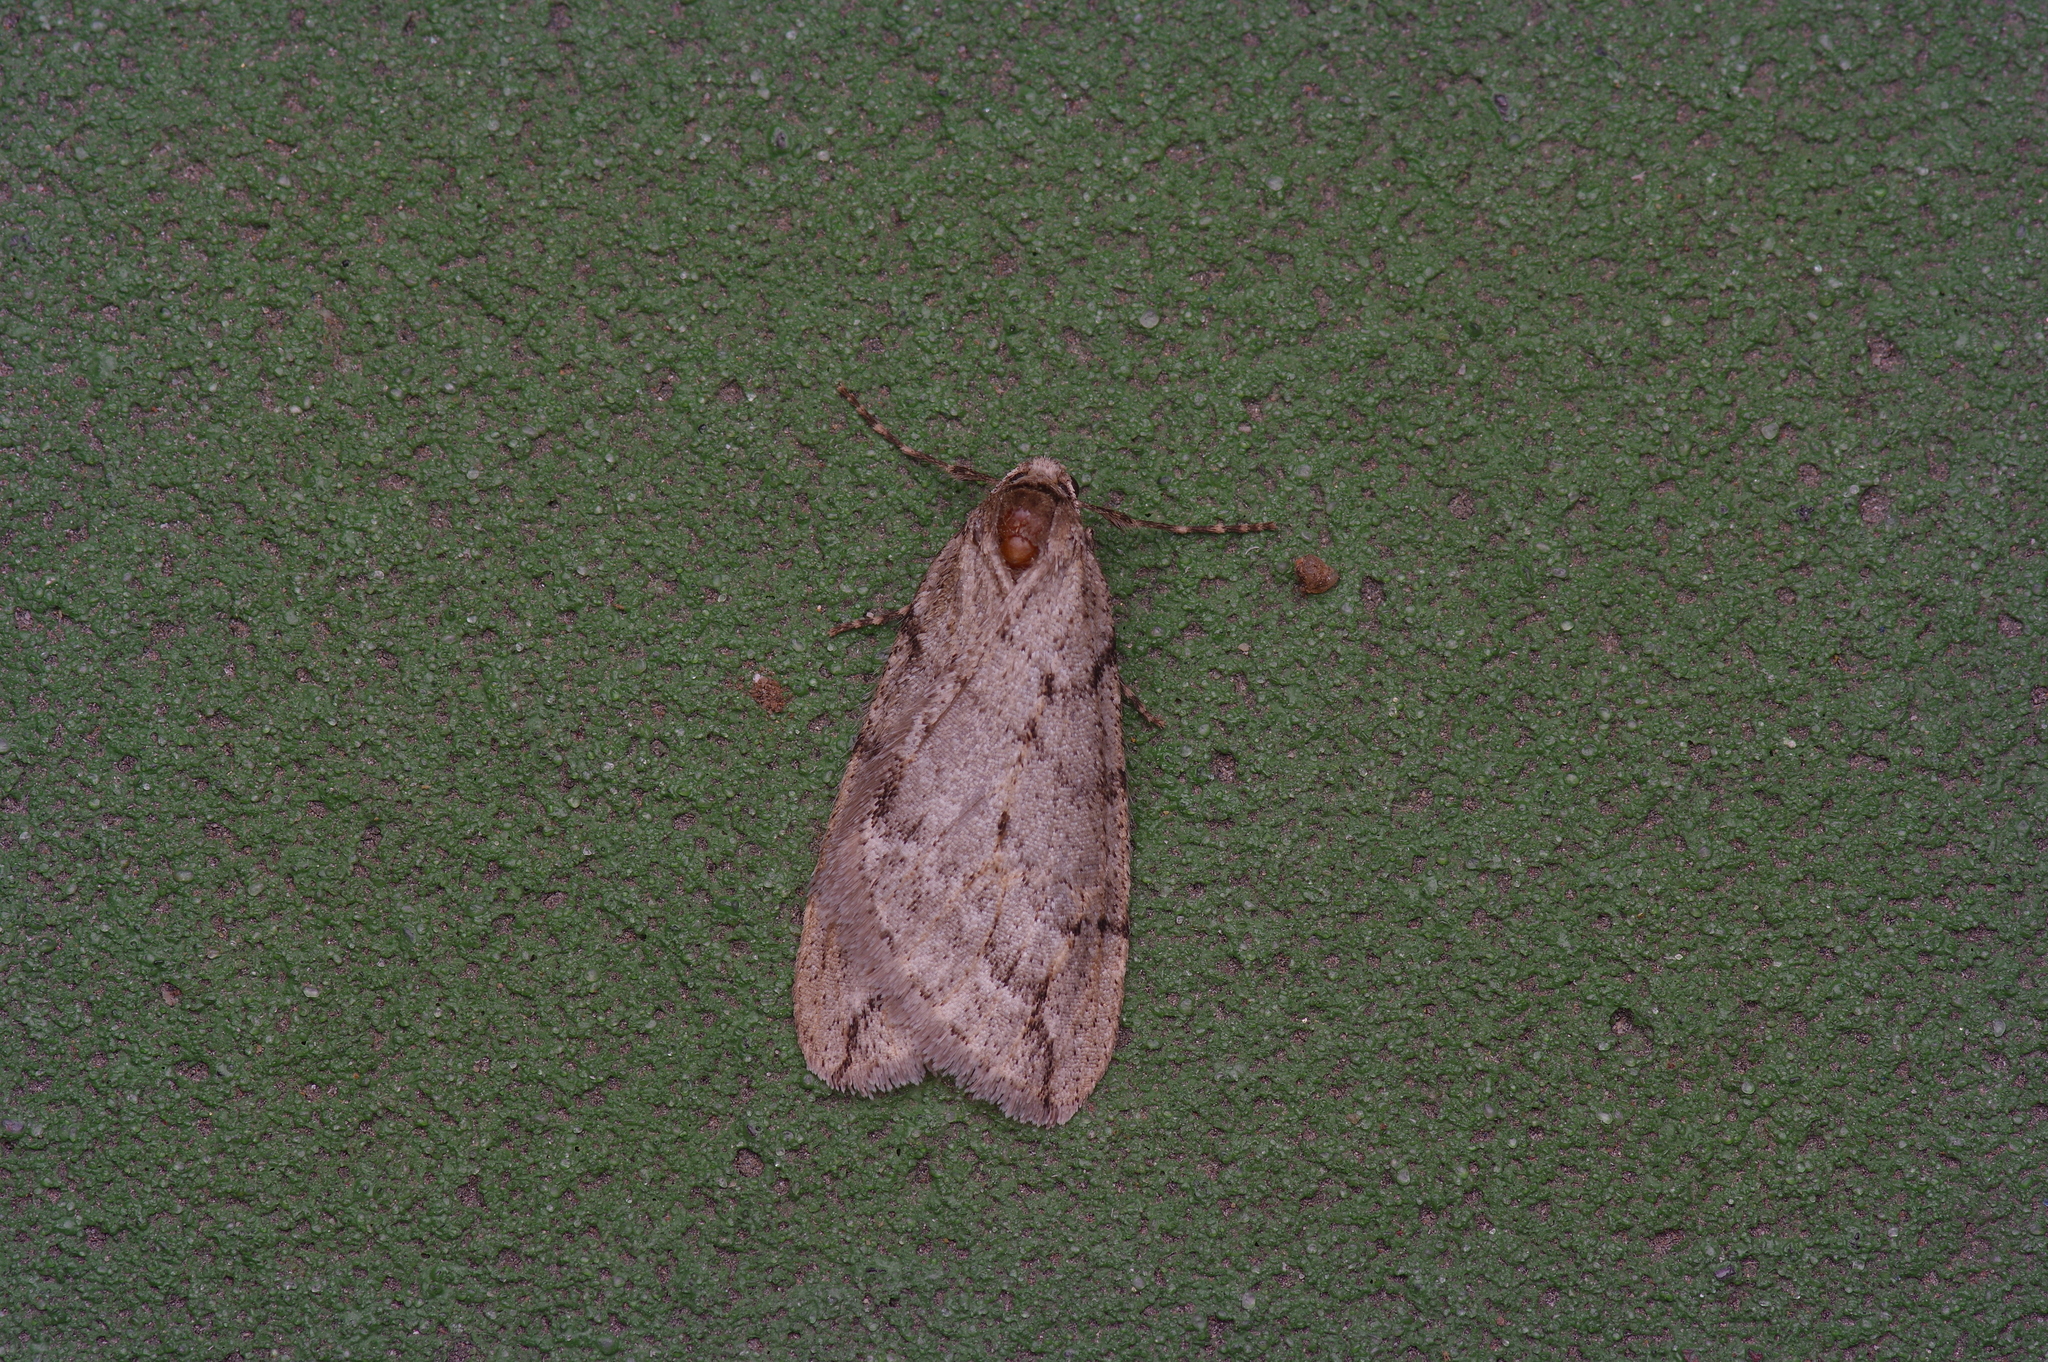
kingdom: Animalia
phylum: Arthropoda
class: Insecta
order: Lepidoptera
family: Geometridae
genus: Paleacrita
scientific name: Paleacrita vernata
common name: Spring cankerworm
